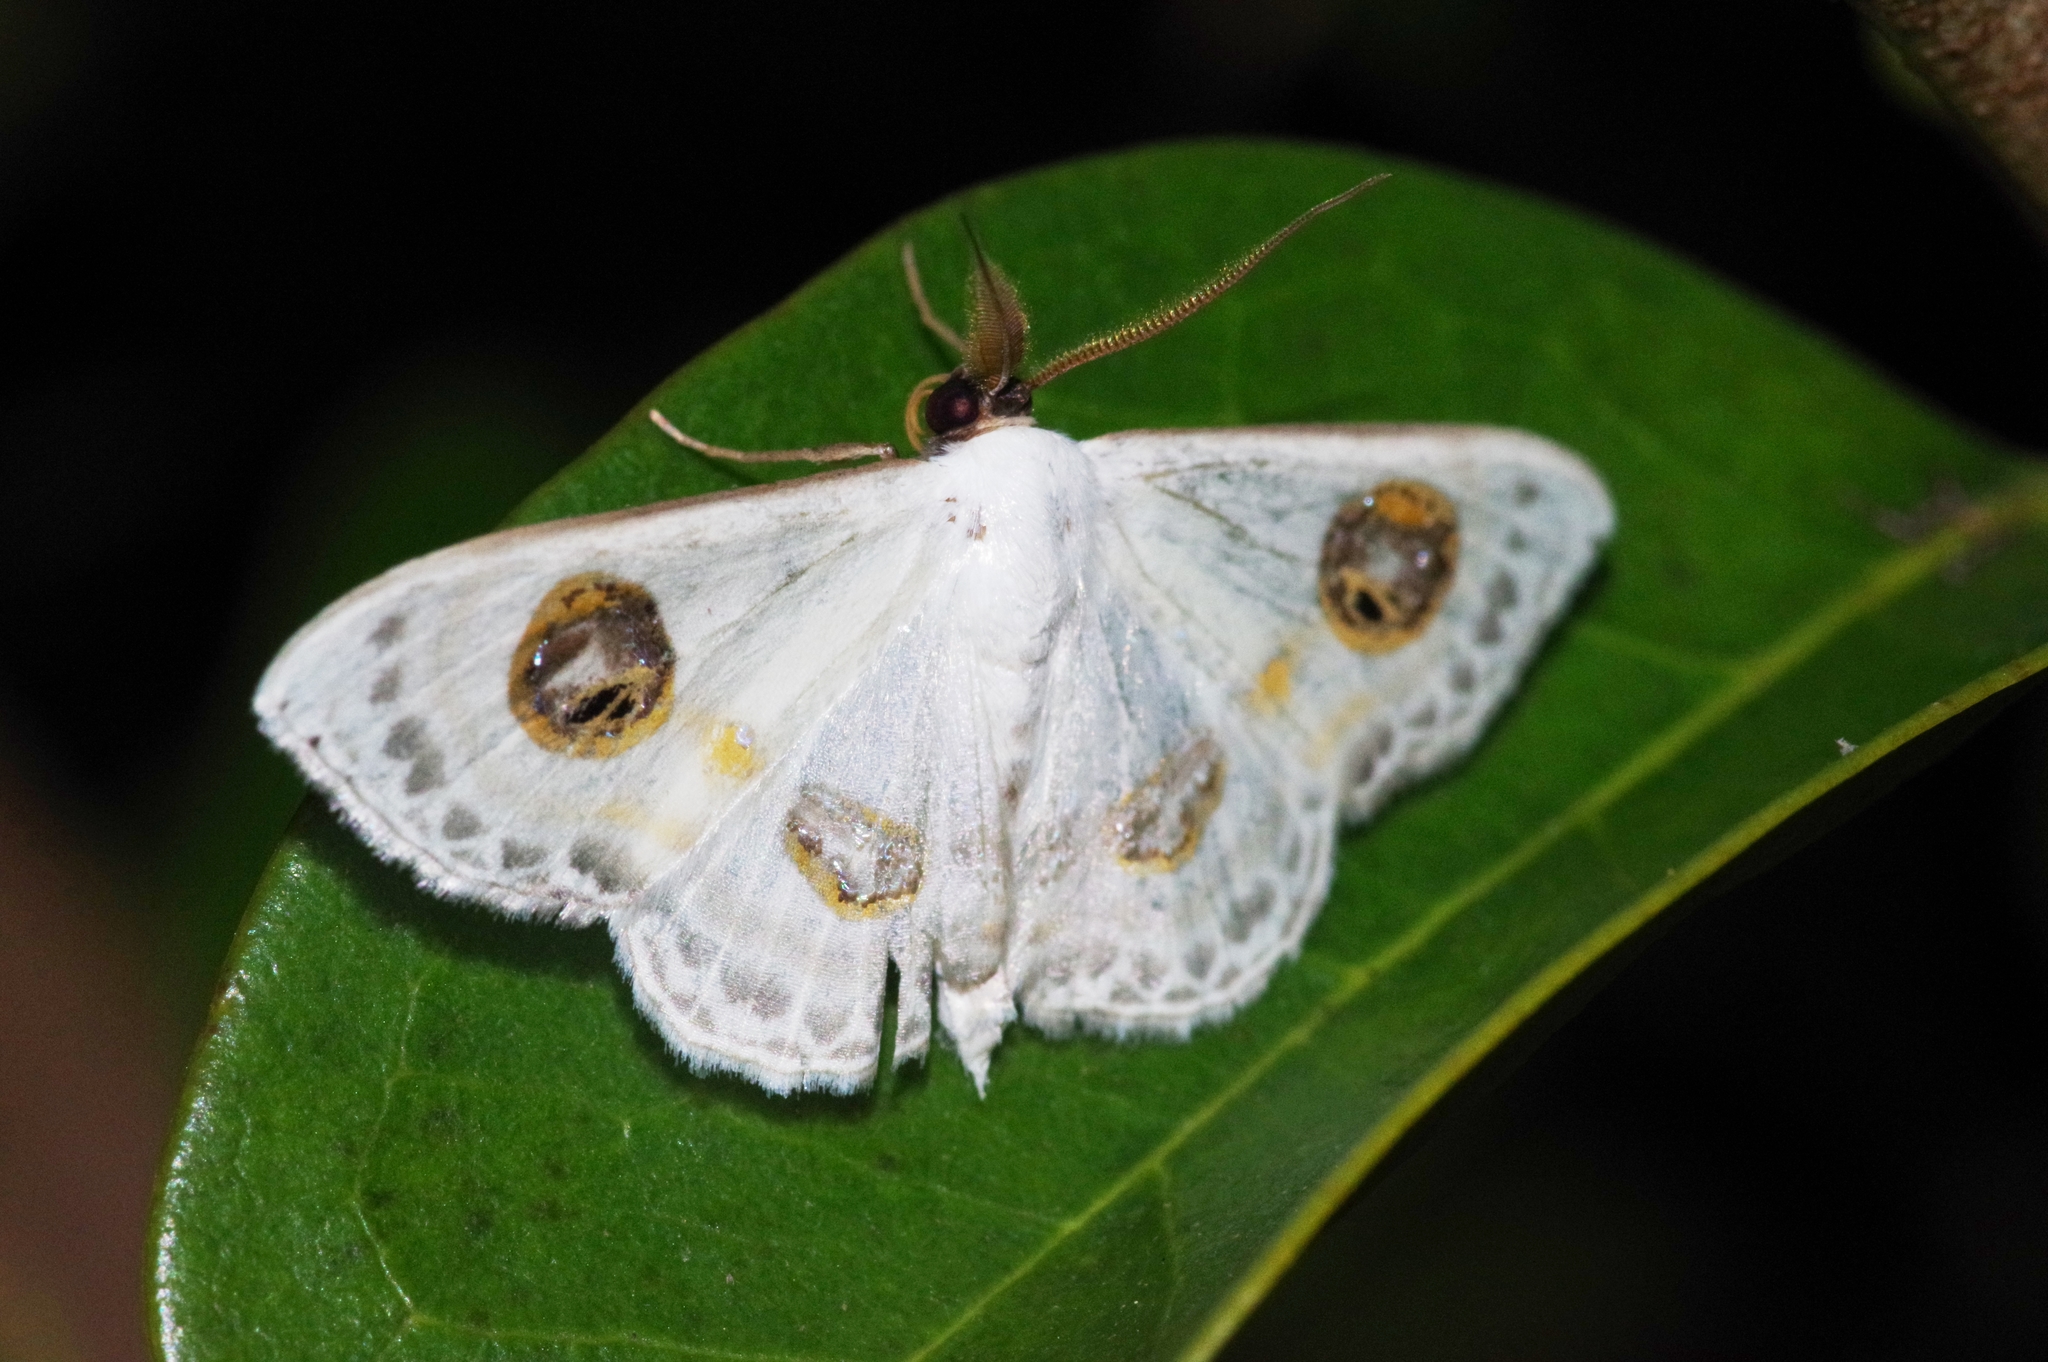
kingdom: Animalia
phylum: Arthropoda
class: Insecta
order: Lepidoptera
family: Geometridae
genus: Problepsis
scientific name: Problepsis albidior
